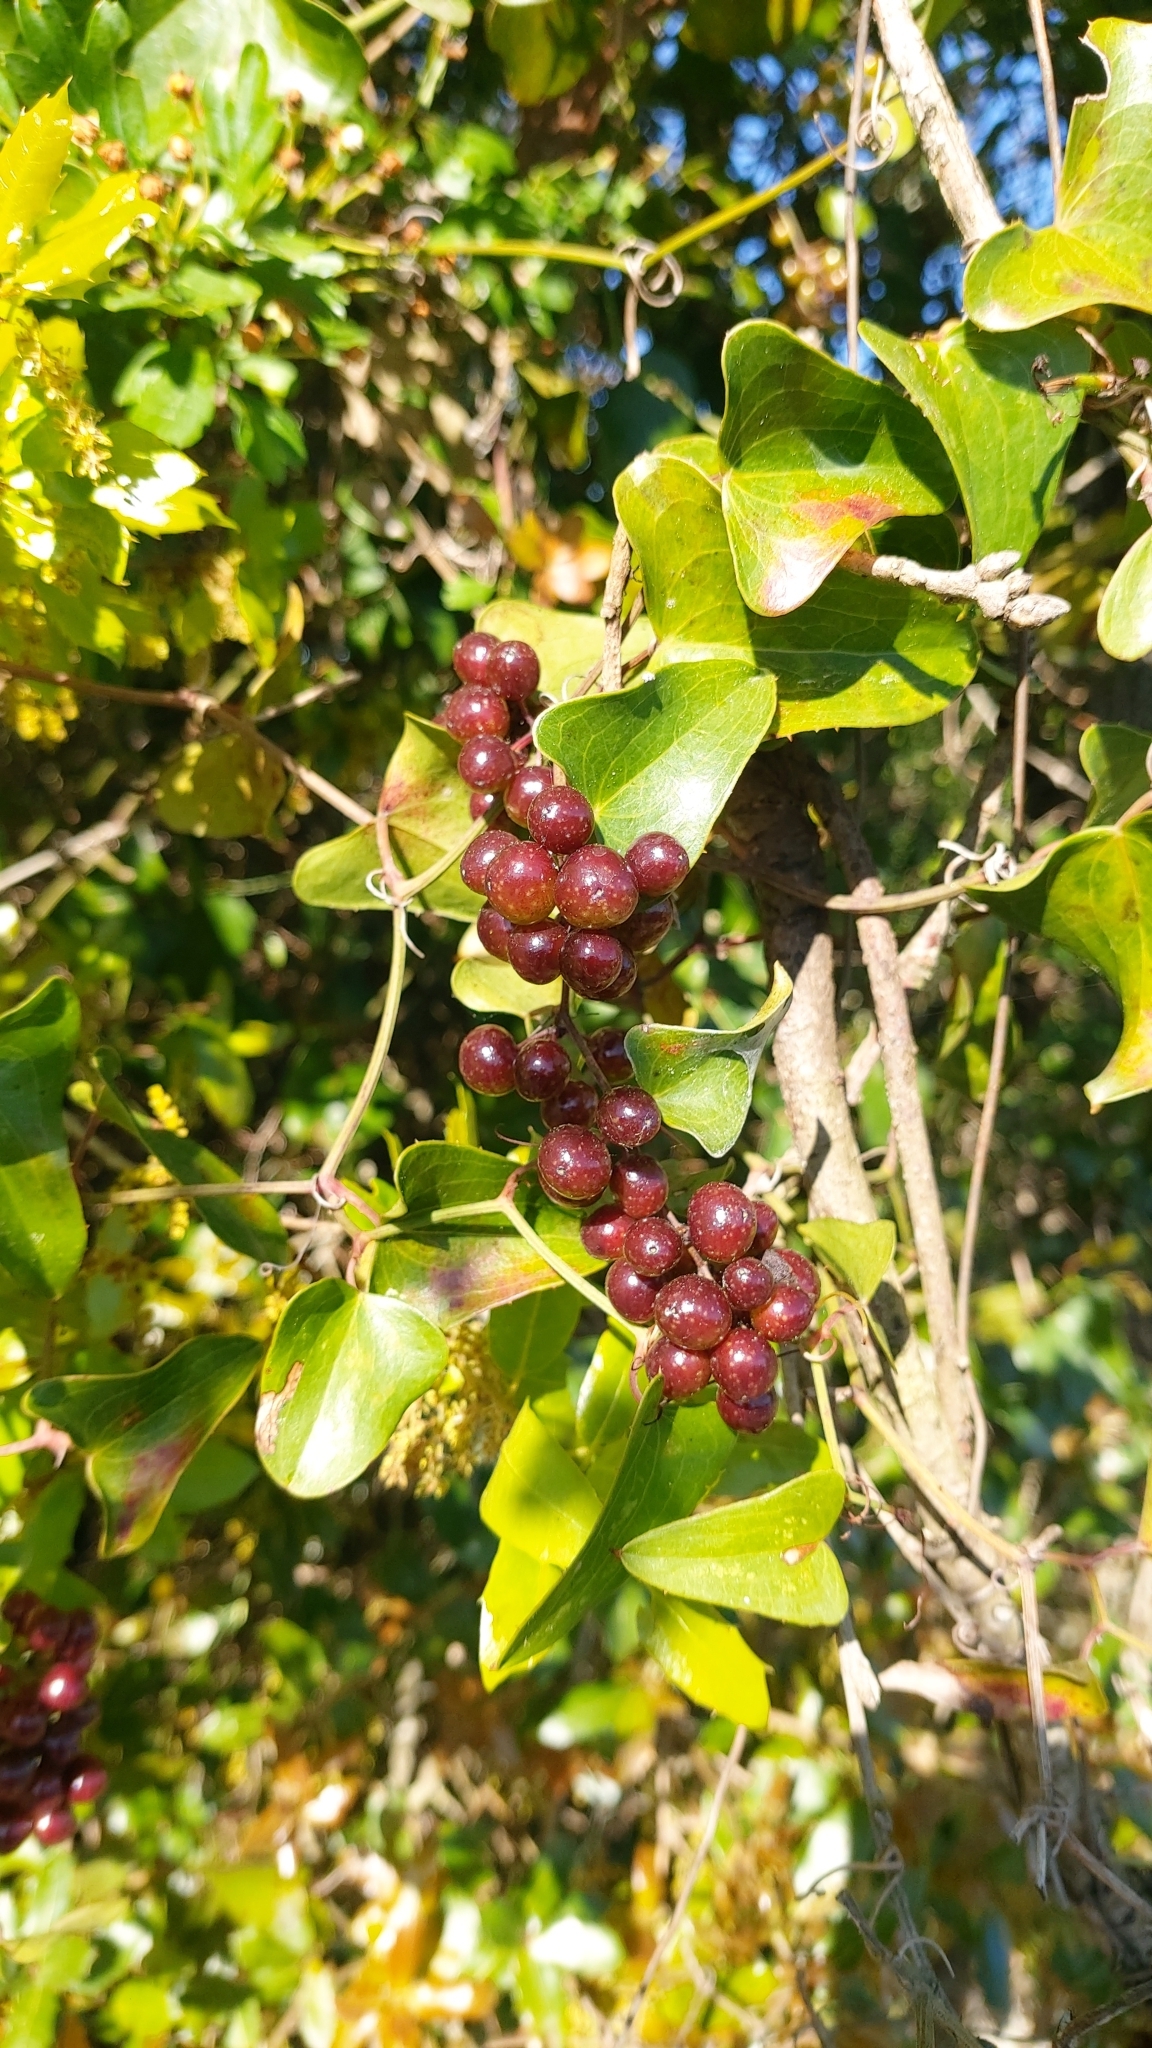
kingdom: Plantae
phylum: Tracheophyta
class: Liliopsida
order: Liliales
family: Smilacaceae
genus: Smilax
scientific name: Smilax aspera
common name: Common smilax
